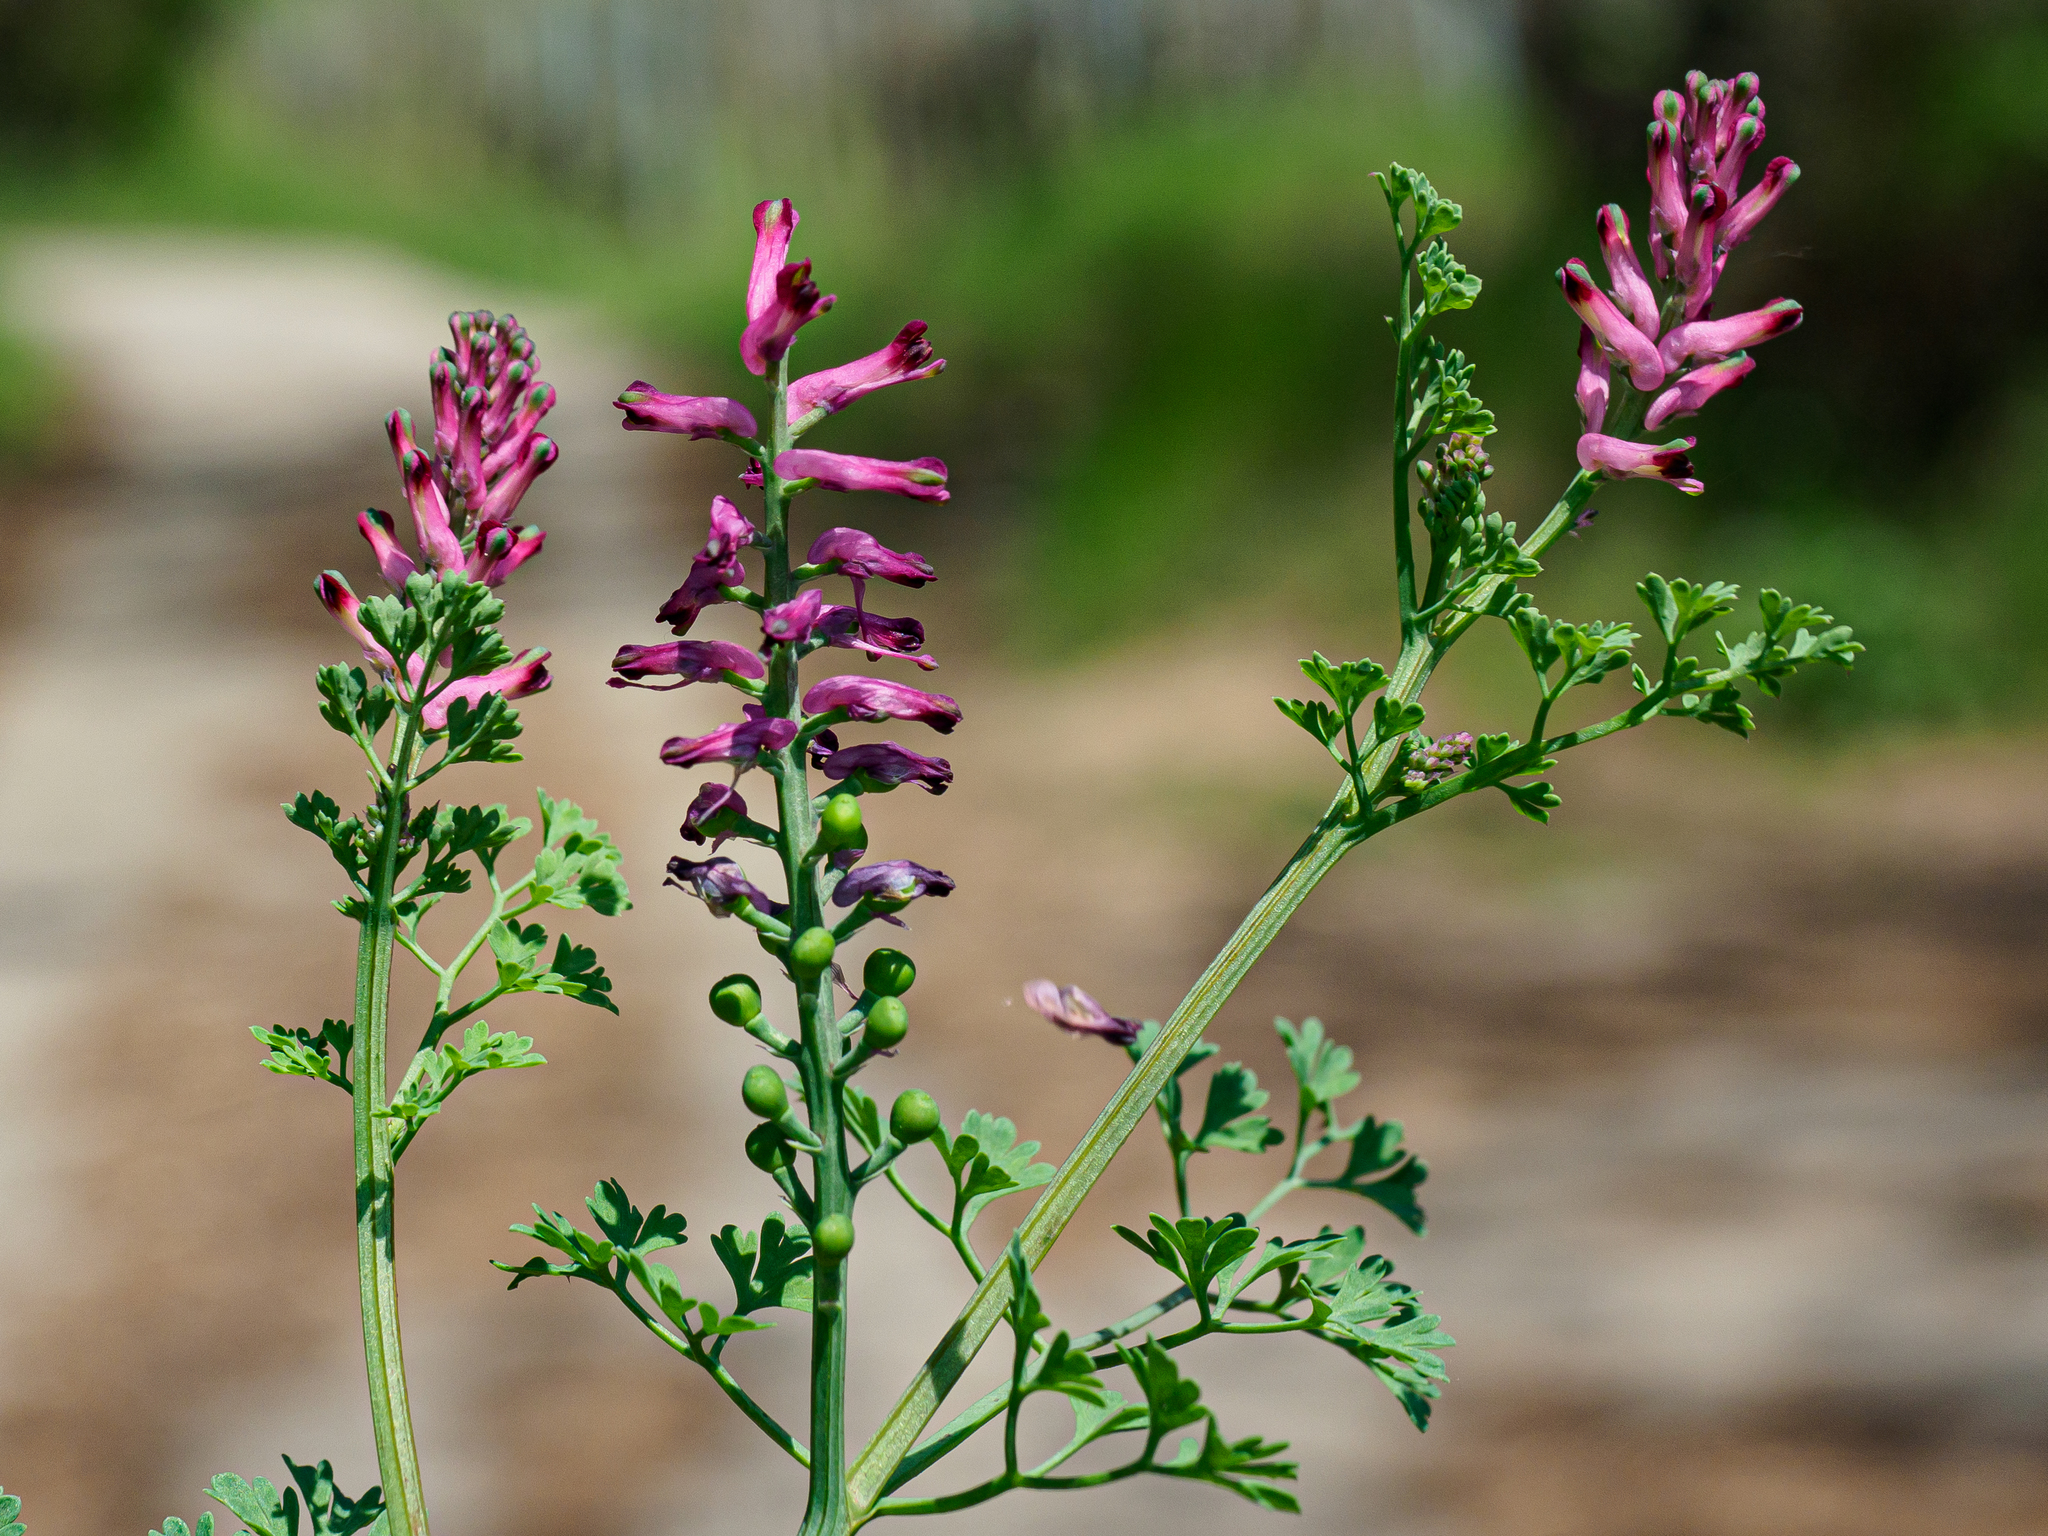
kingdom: Plantae
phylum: Tracheophyta
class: Magnoliopsida
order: Ranunculales
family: Papaveraceae
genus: Fumaria
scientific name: Fumaria officinalis
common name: Common fumitory
